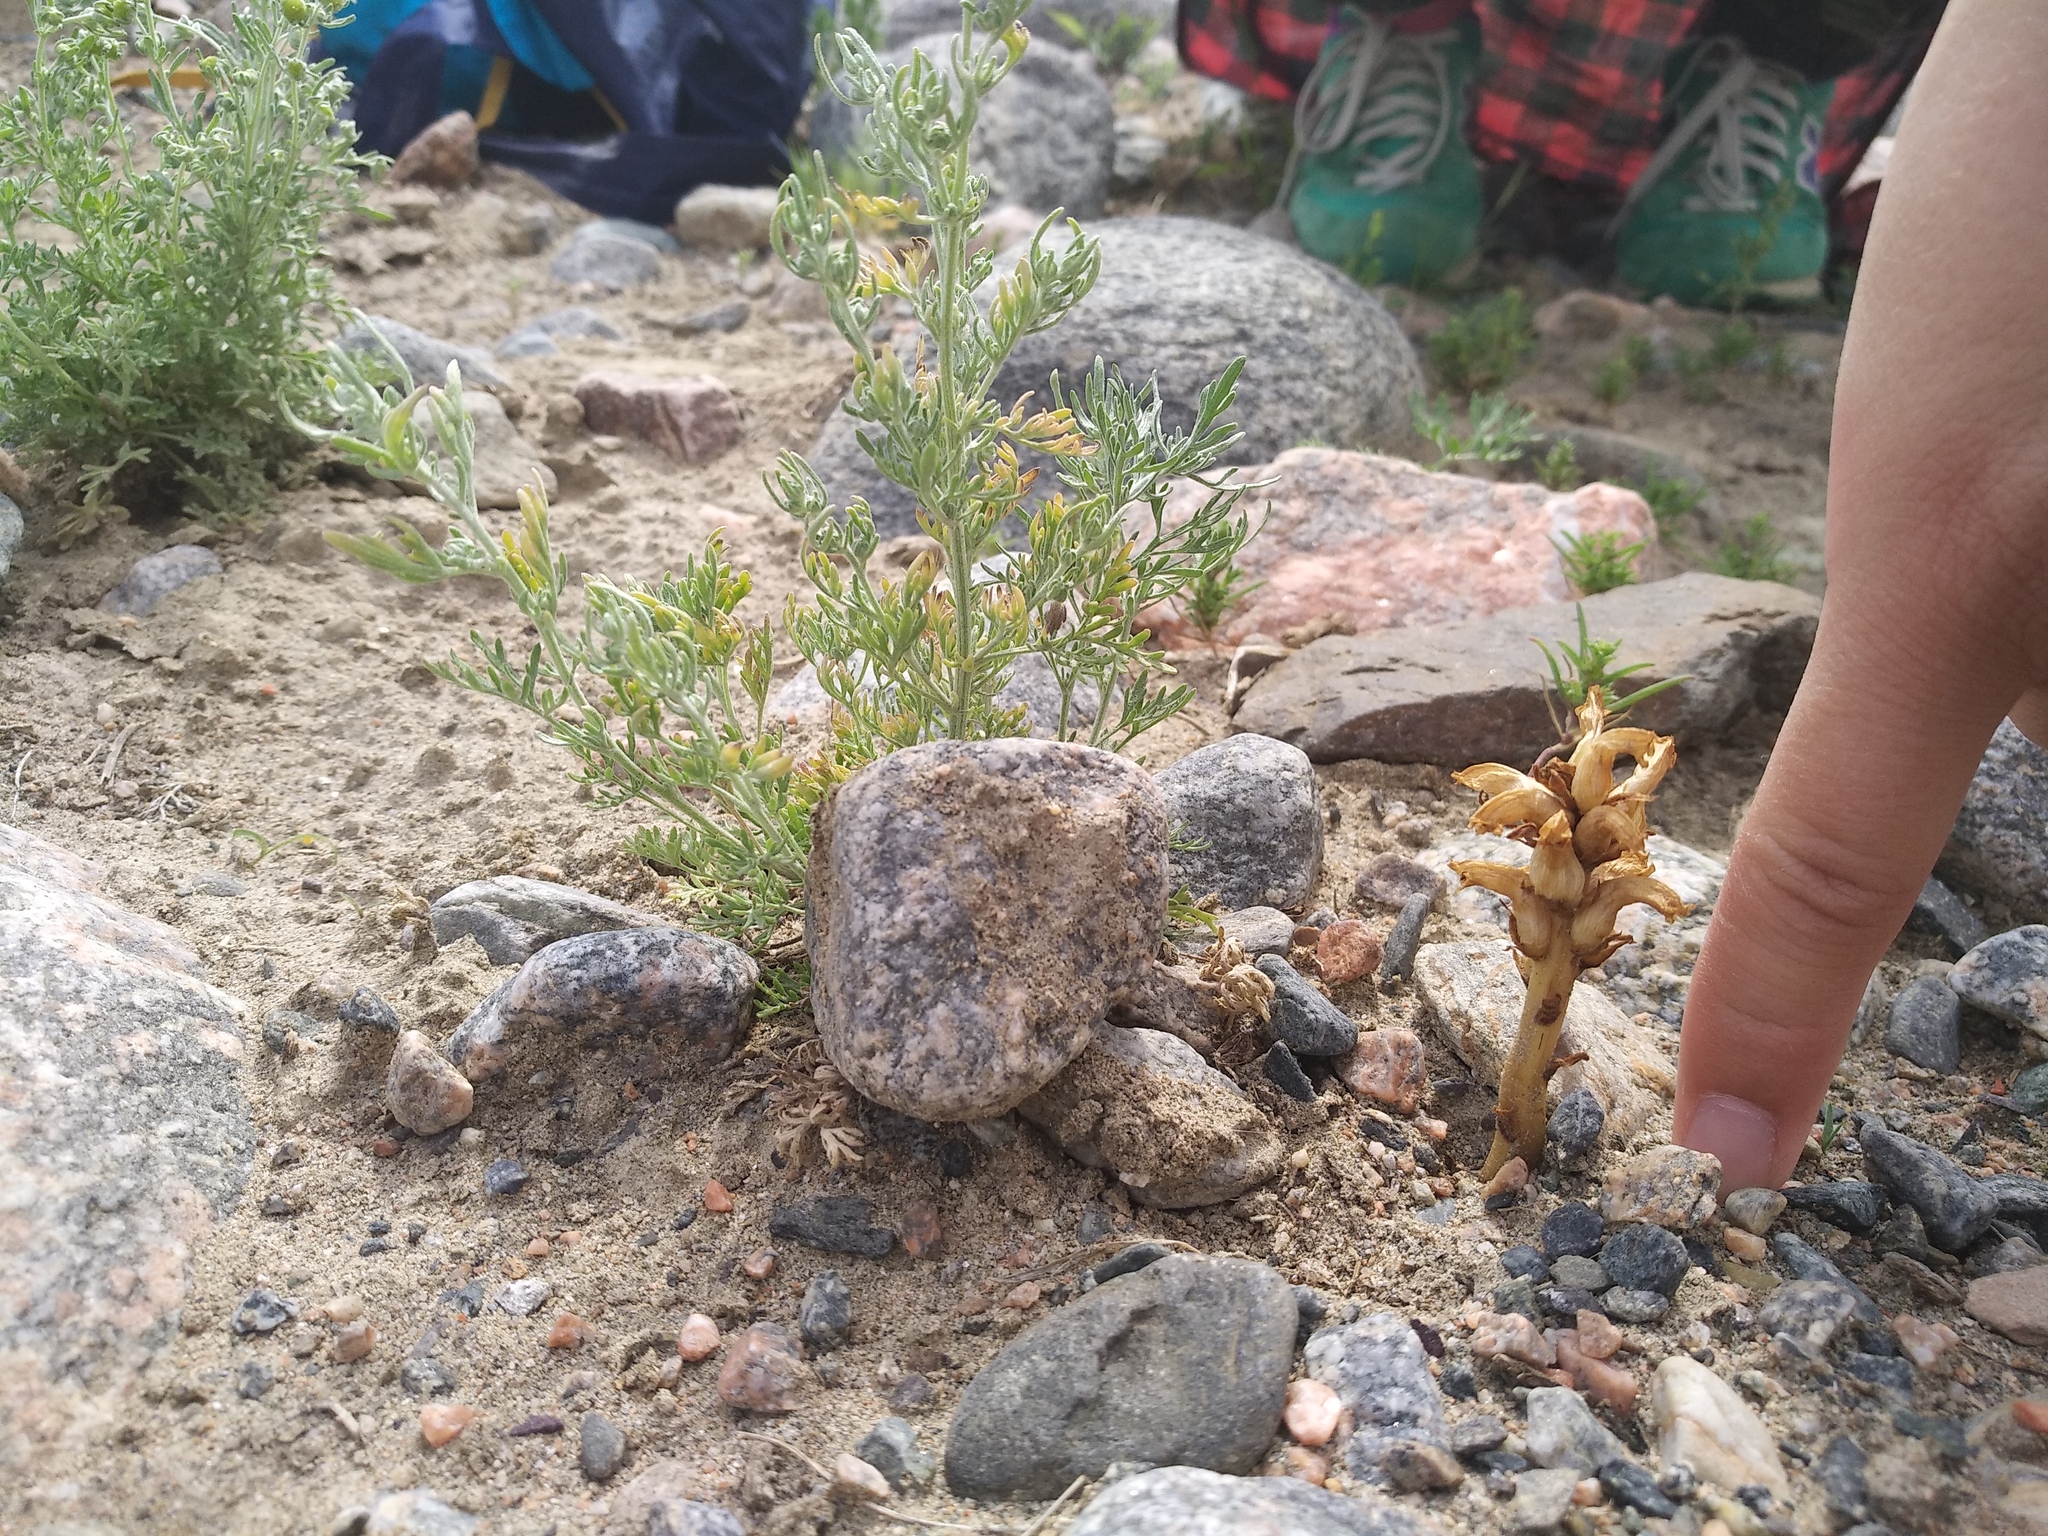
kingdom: Plantae
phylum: Tracheophyta
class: Magnoliopsida
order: Lamiales
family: Orobanchaceae
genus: Orobanche
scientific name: Orobanche cernua
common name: Australian broomrape
